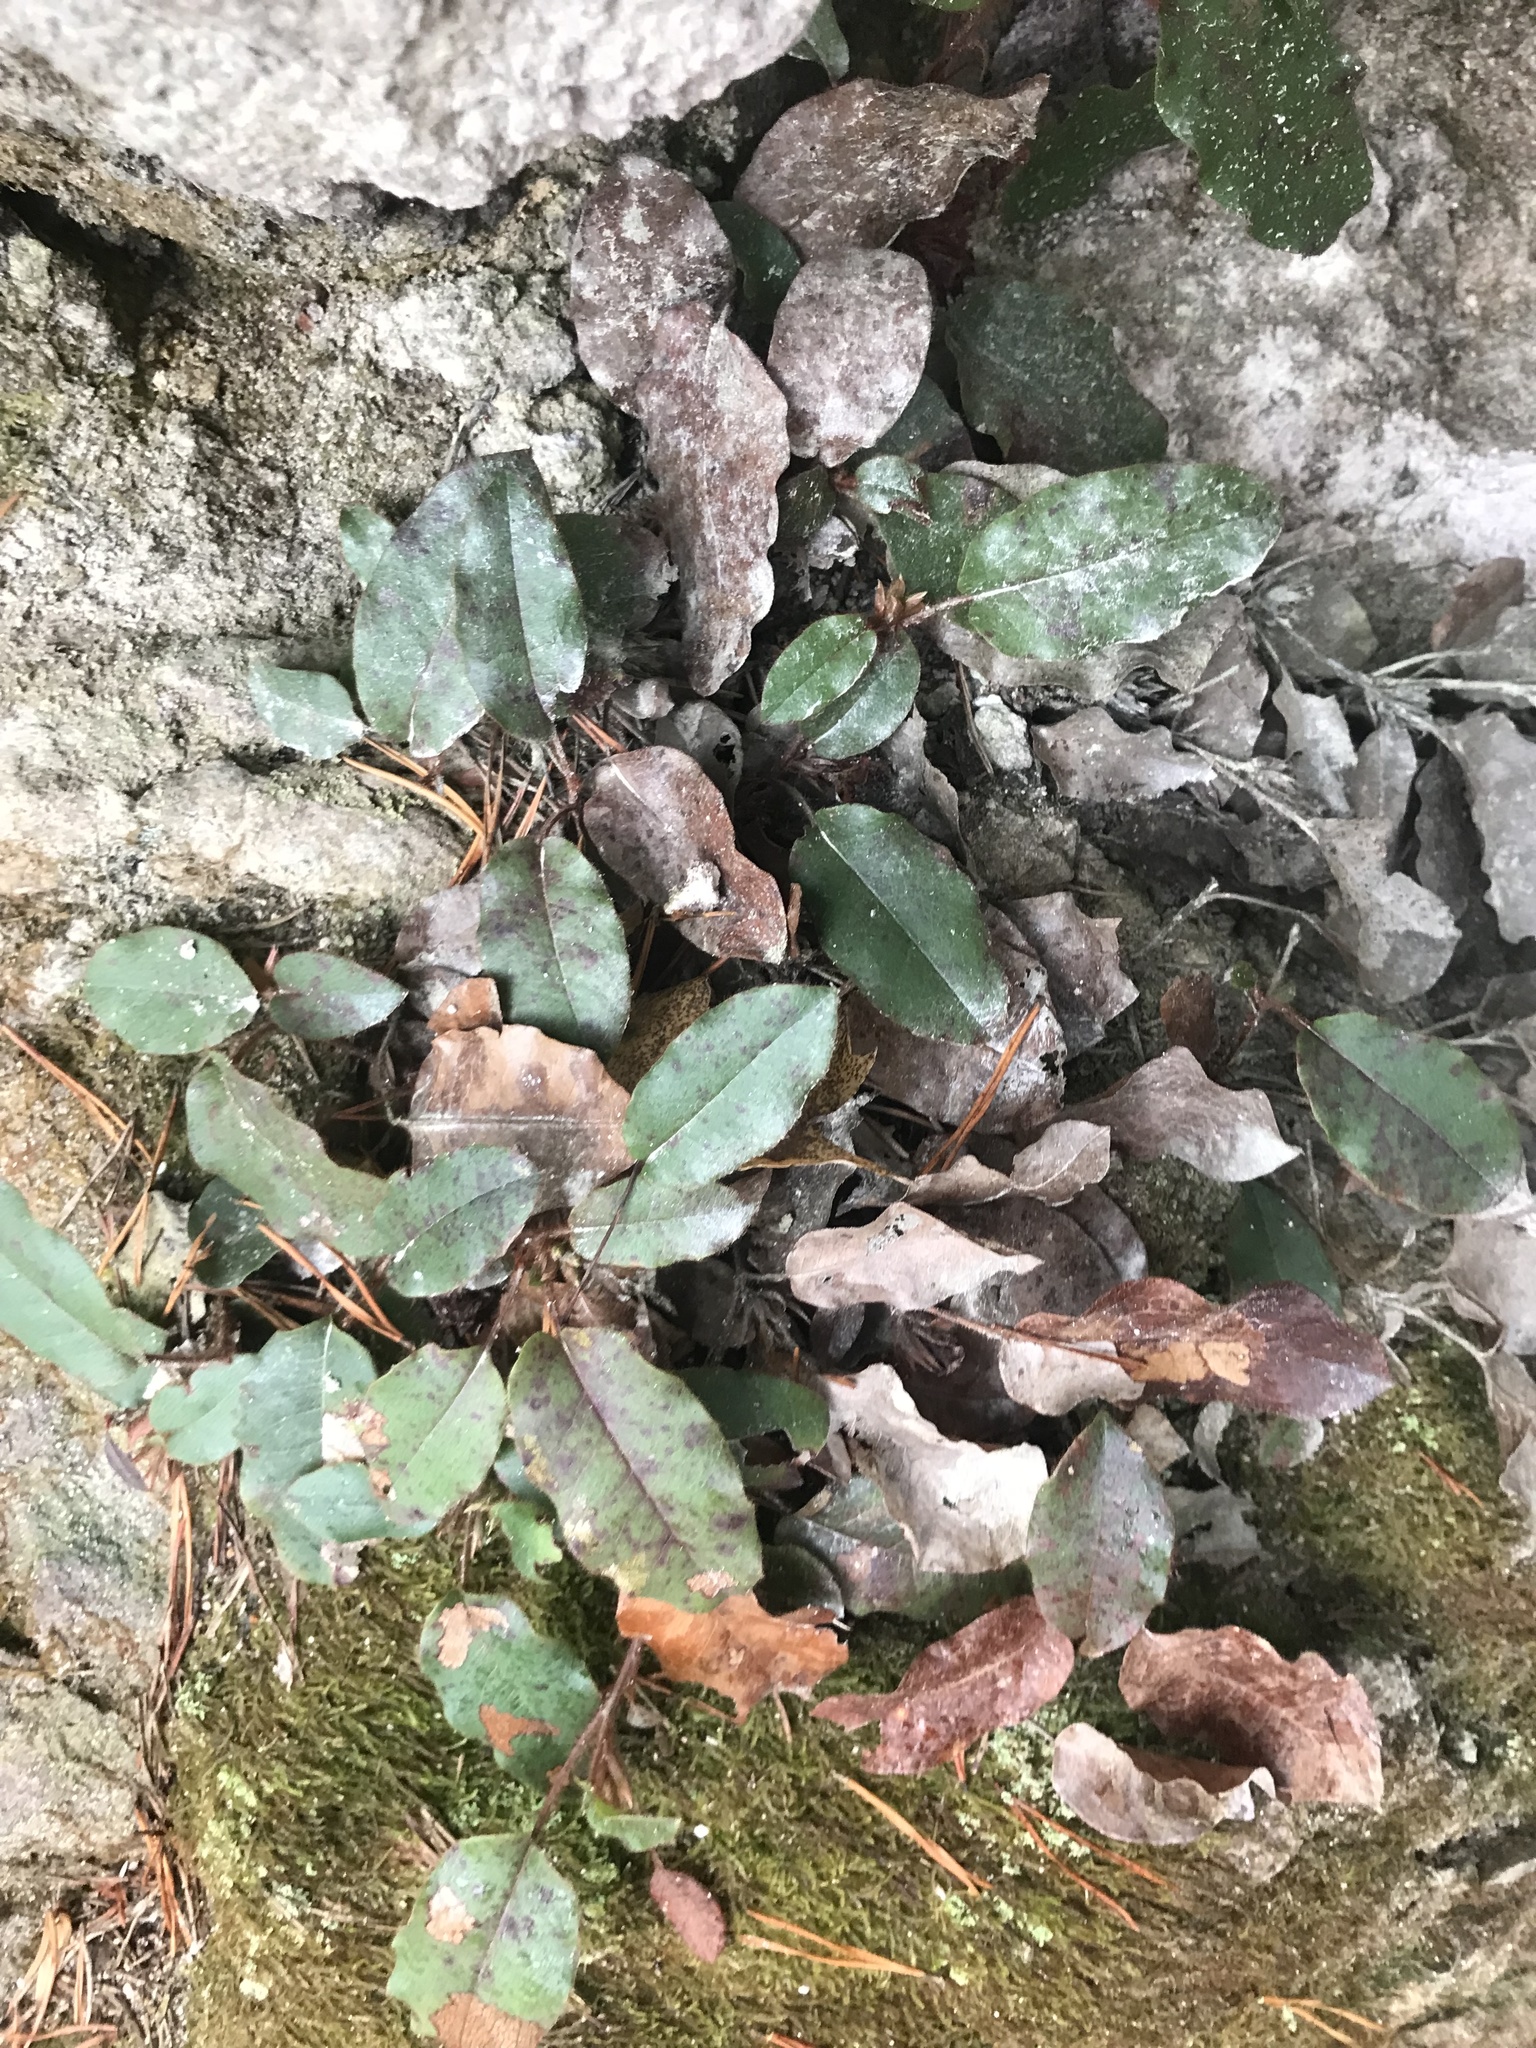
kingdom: Plantae
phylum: Tracheophyta
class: Magnoliopsida
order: Ericales
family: Ericaceae
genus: Epigaea
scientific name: Epigaea repens
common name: Gravelroot
